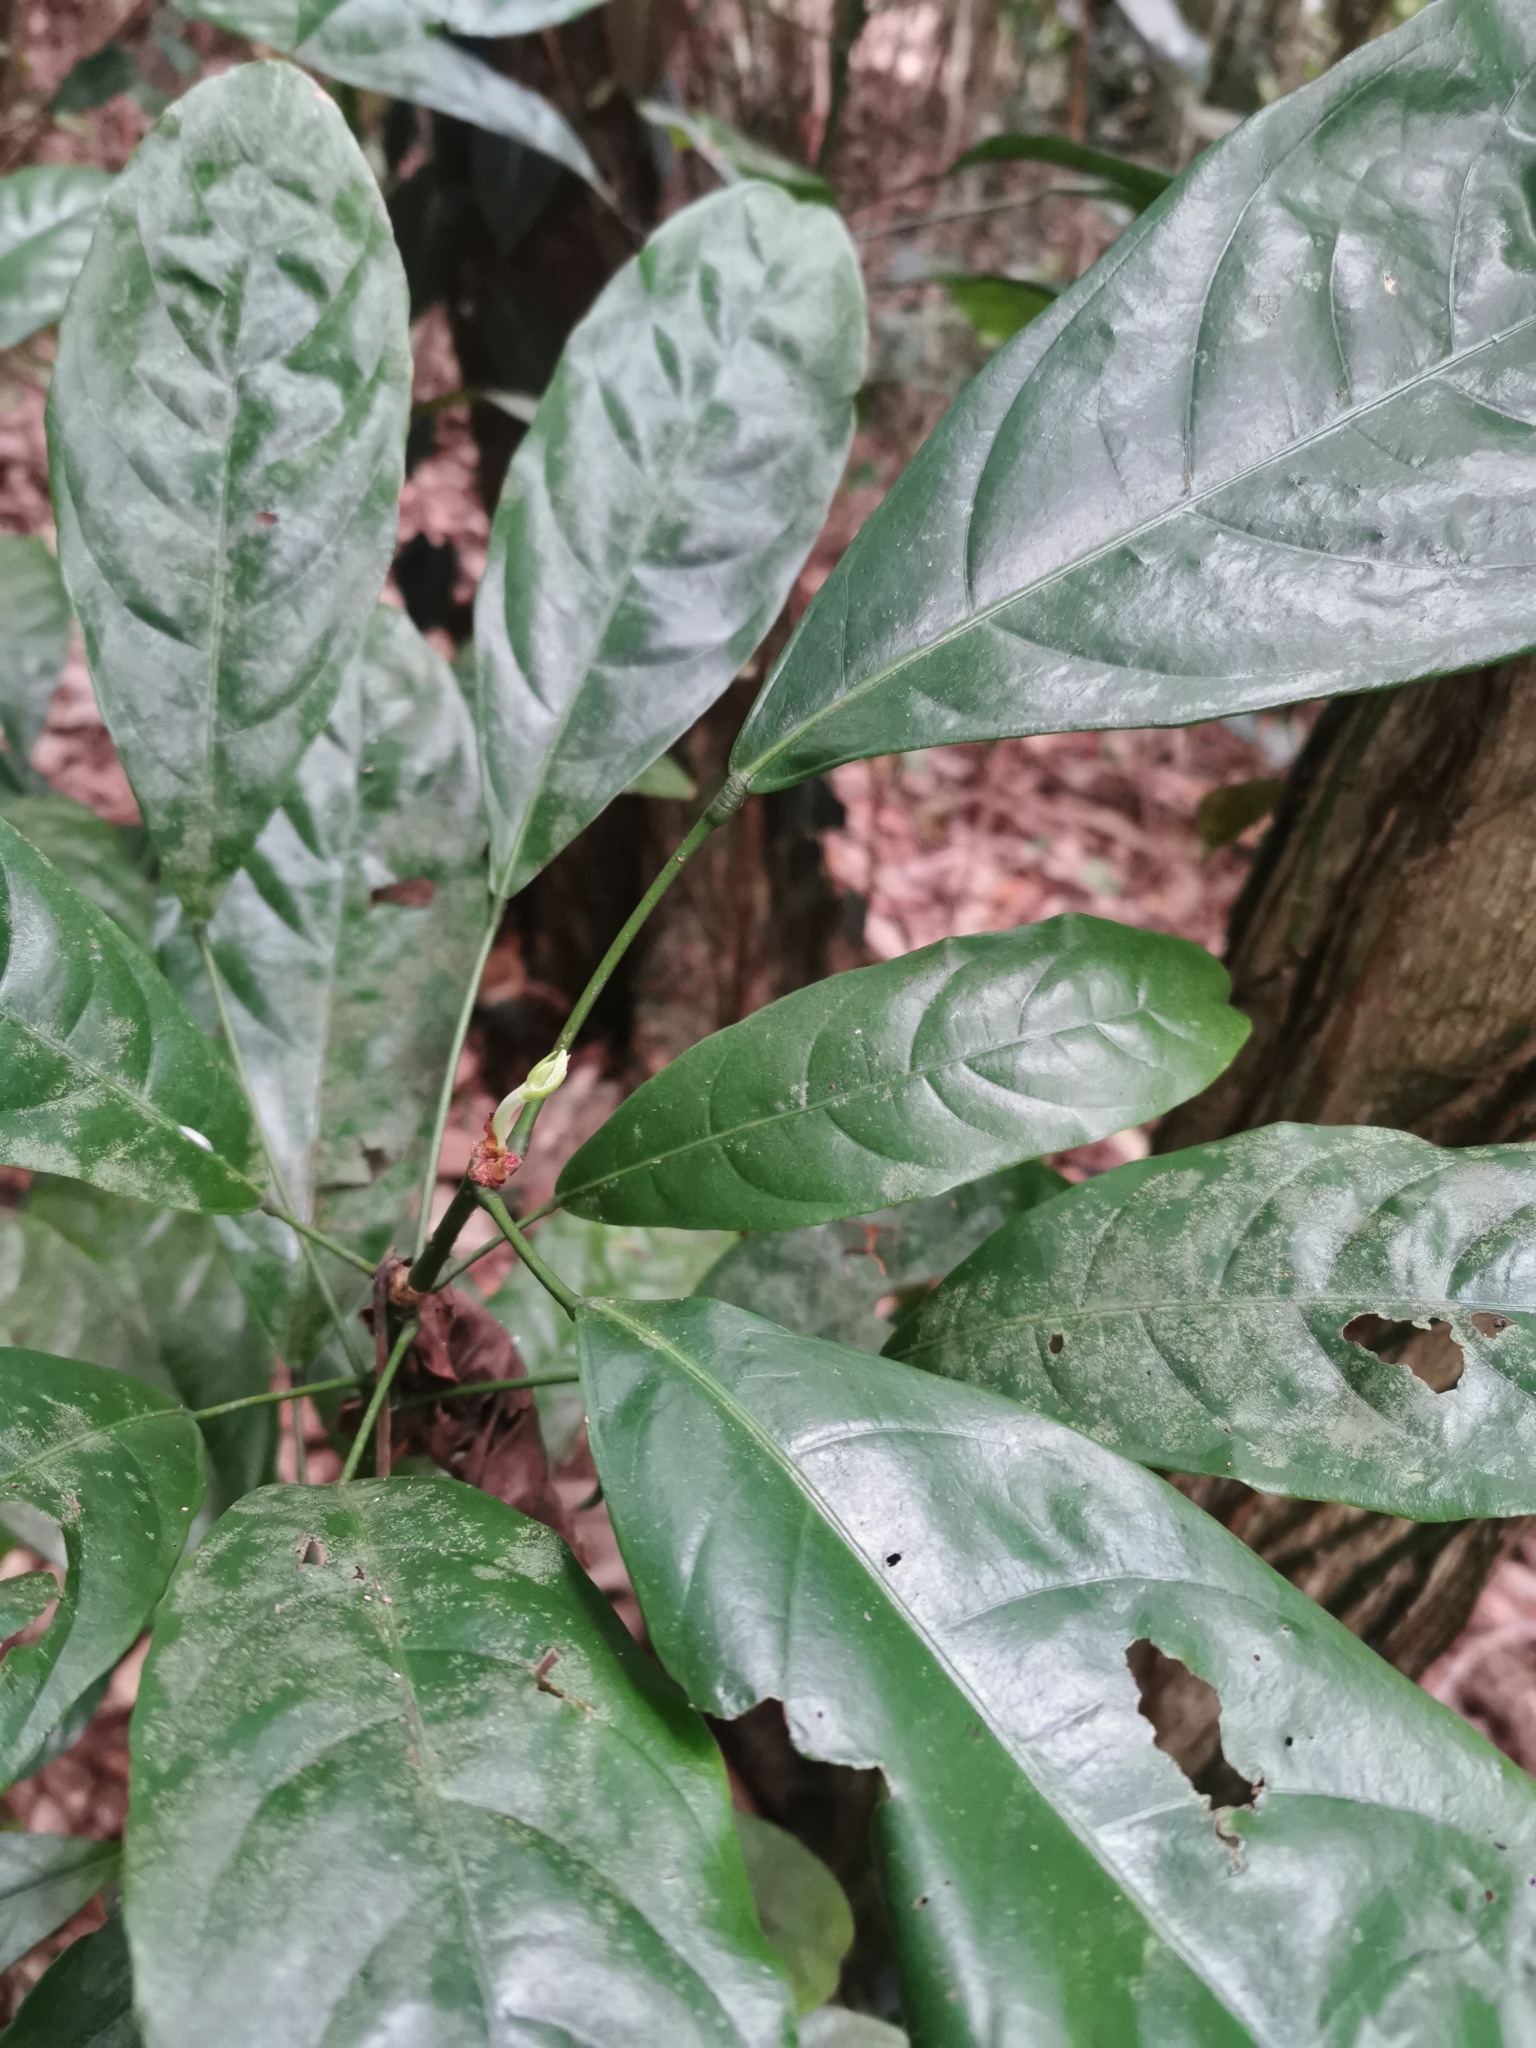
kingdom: Plantae
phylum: Tracheophyta
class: Magnoliopsida
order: Malvales
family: Malvaceae
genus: Cola
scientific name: Cola nitida
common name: Kola nut
